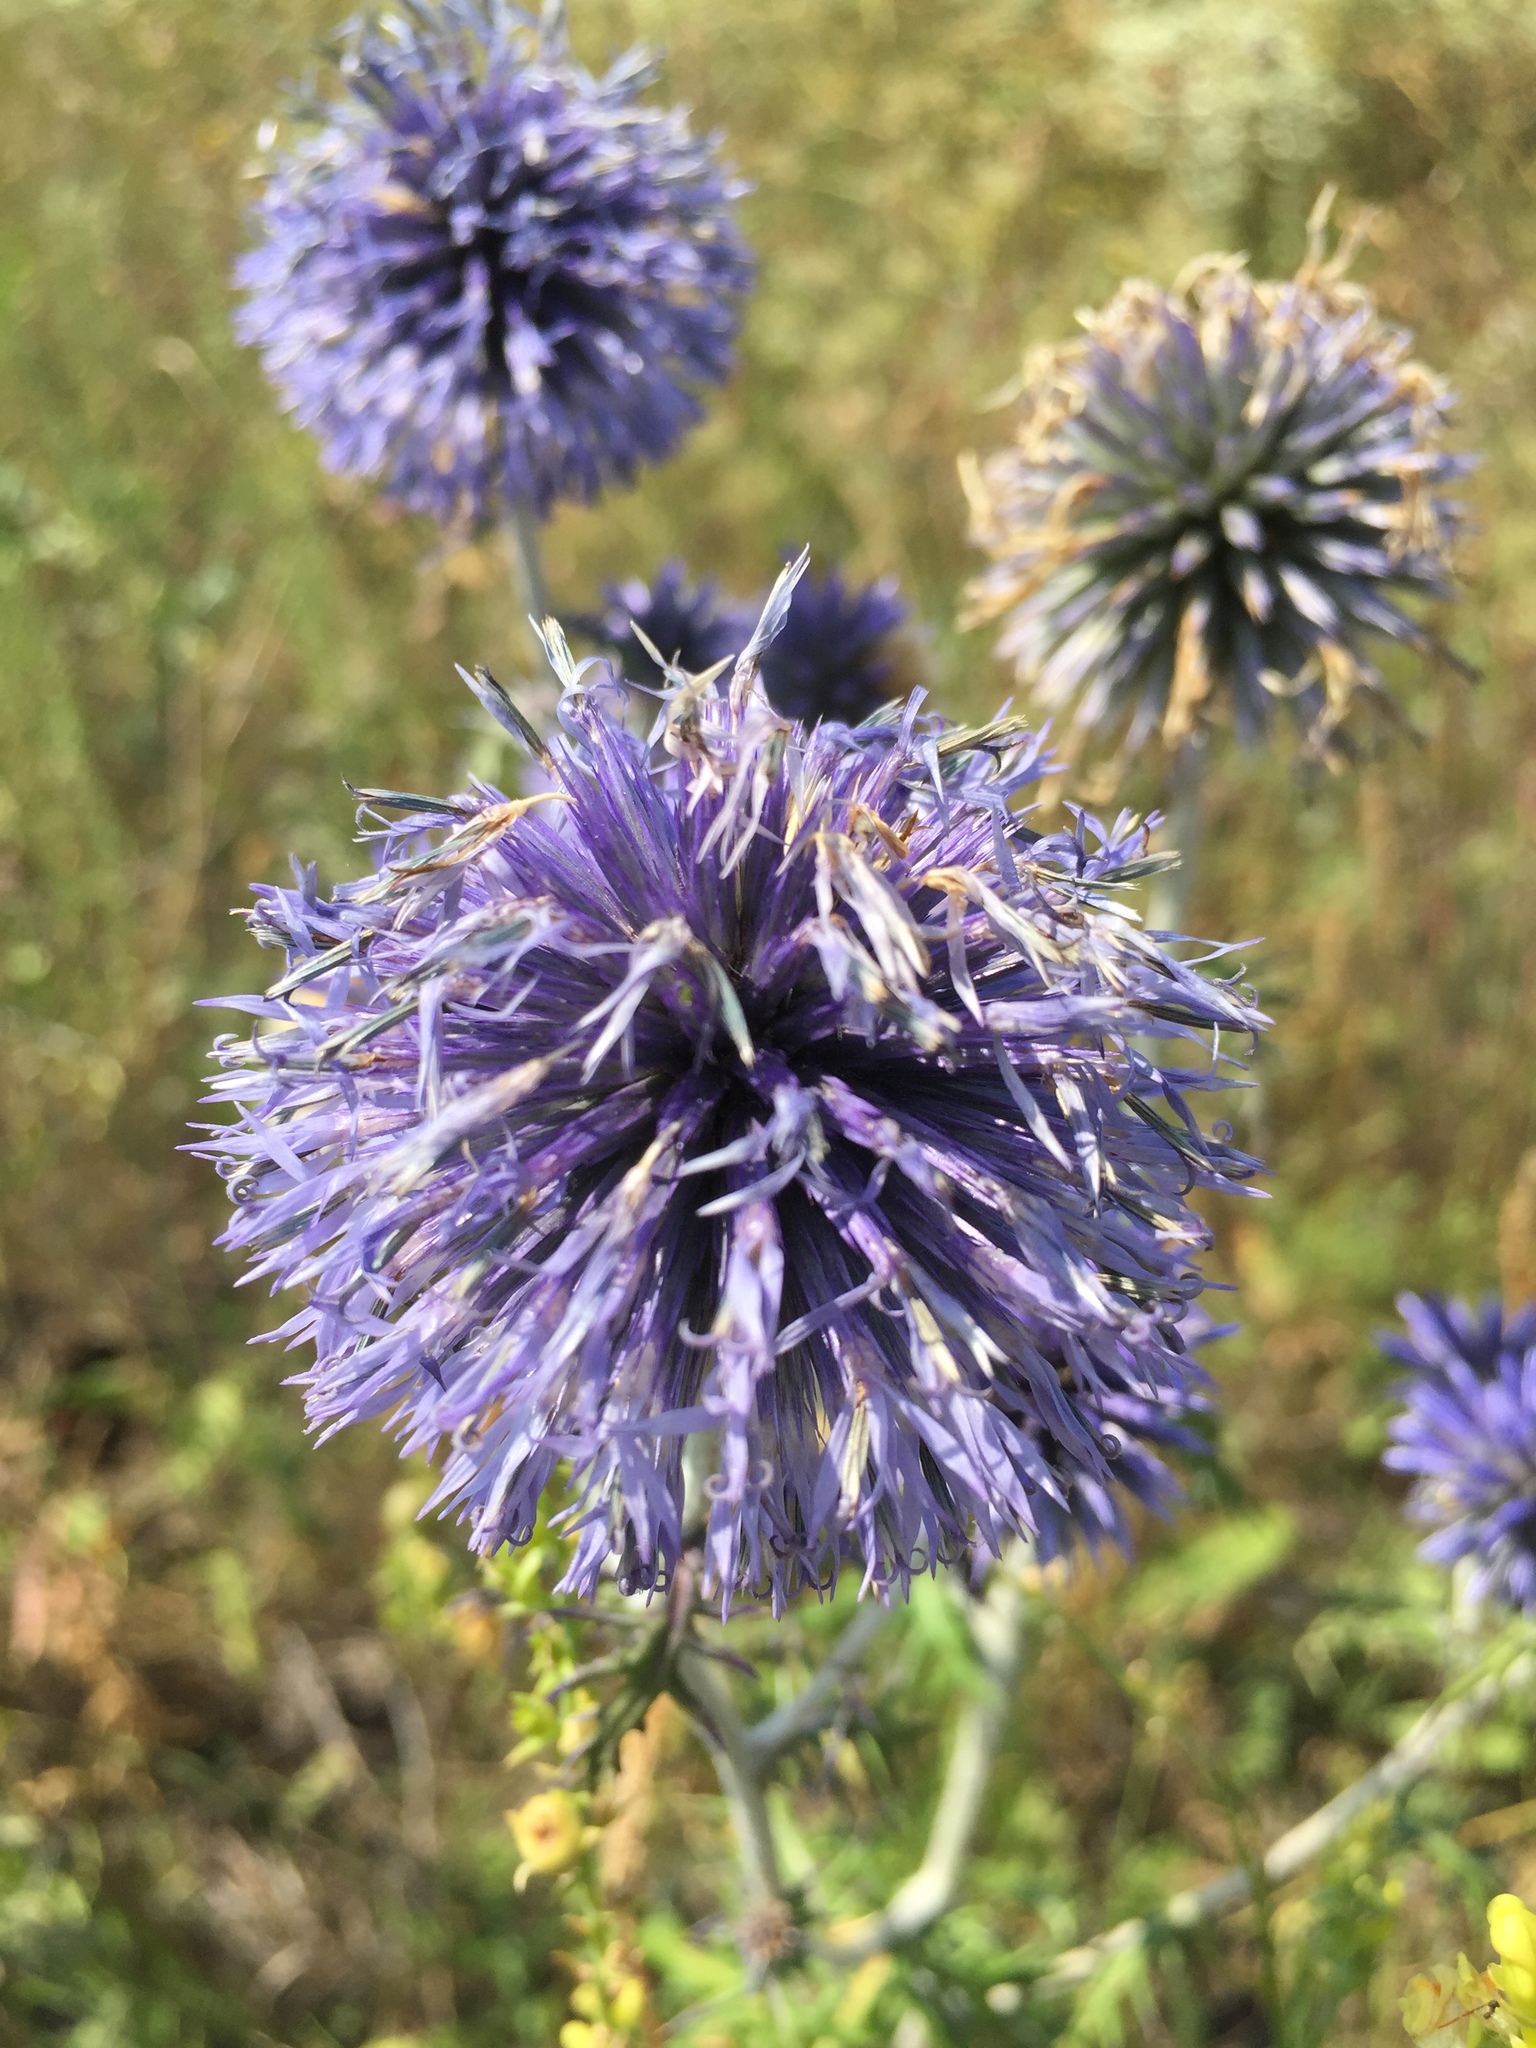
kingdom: Plantae
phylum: Tracheophyta
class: Magnoliopsida
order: Asterales
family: Asteraceae
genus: Echinops
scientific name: Echinops ritro
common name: Globe thistle
